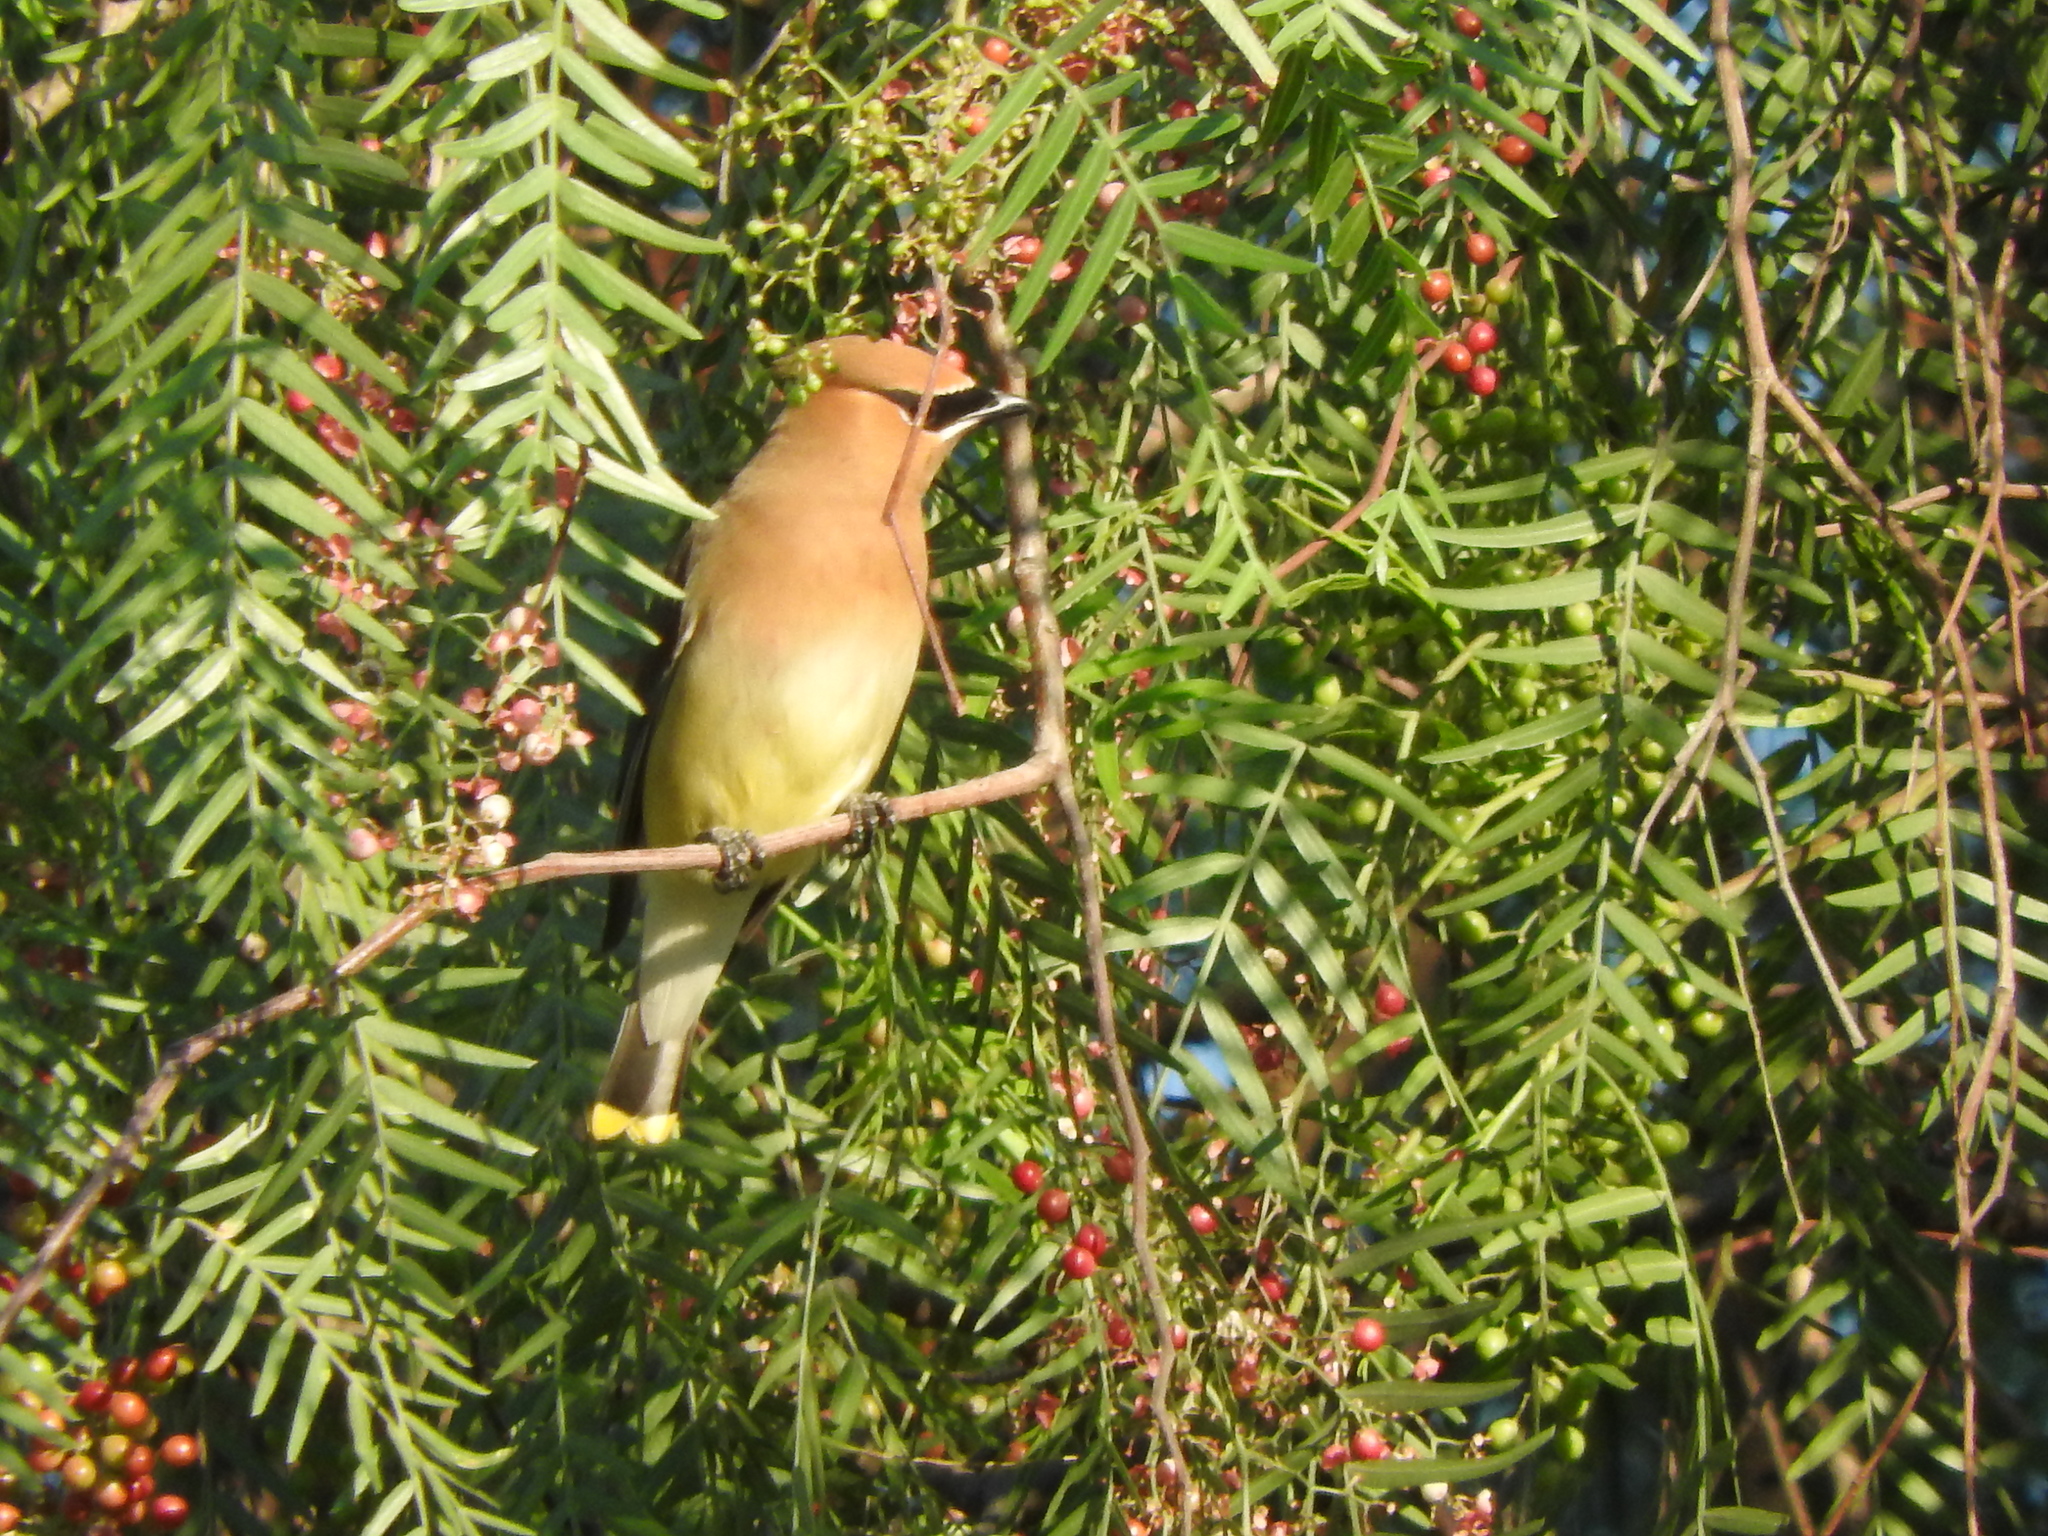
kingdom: Animalia
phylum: Chordata
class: Aves
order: Passeriformes
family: Bombycillidae
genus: Bombycilla
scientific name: Bombycilla cedrorum
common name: Cedar waxwing
